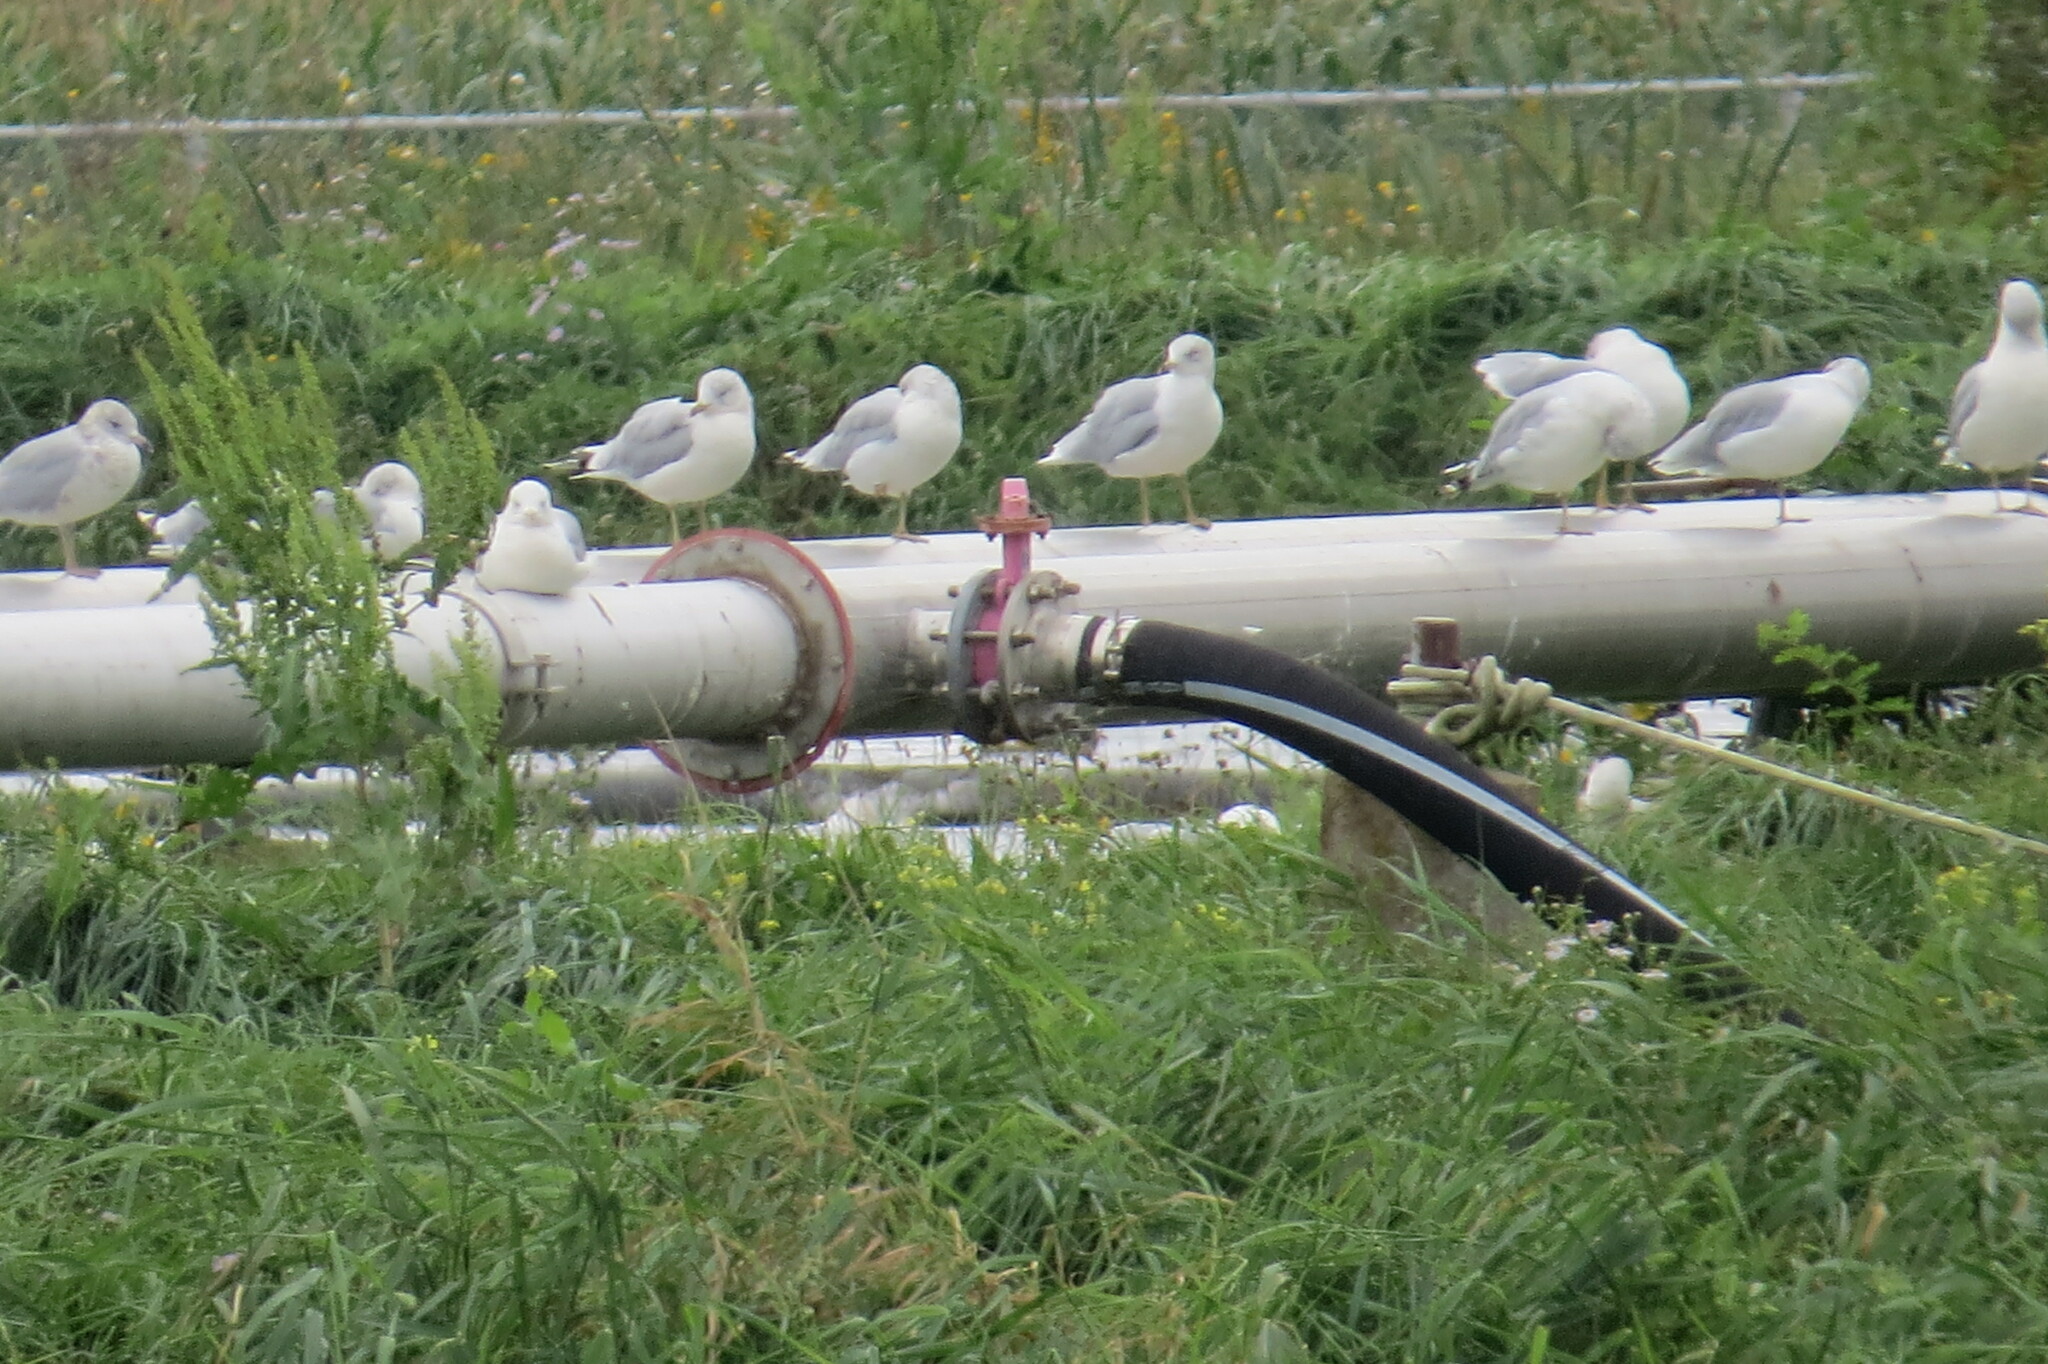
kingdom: Animalia
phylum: Chordata
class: Aves
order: Charadriiformes
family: Laridae
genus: Larus
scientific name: Larus delawarensis
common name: Ring-billed gull
